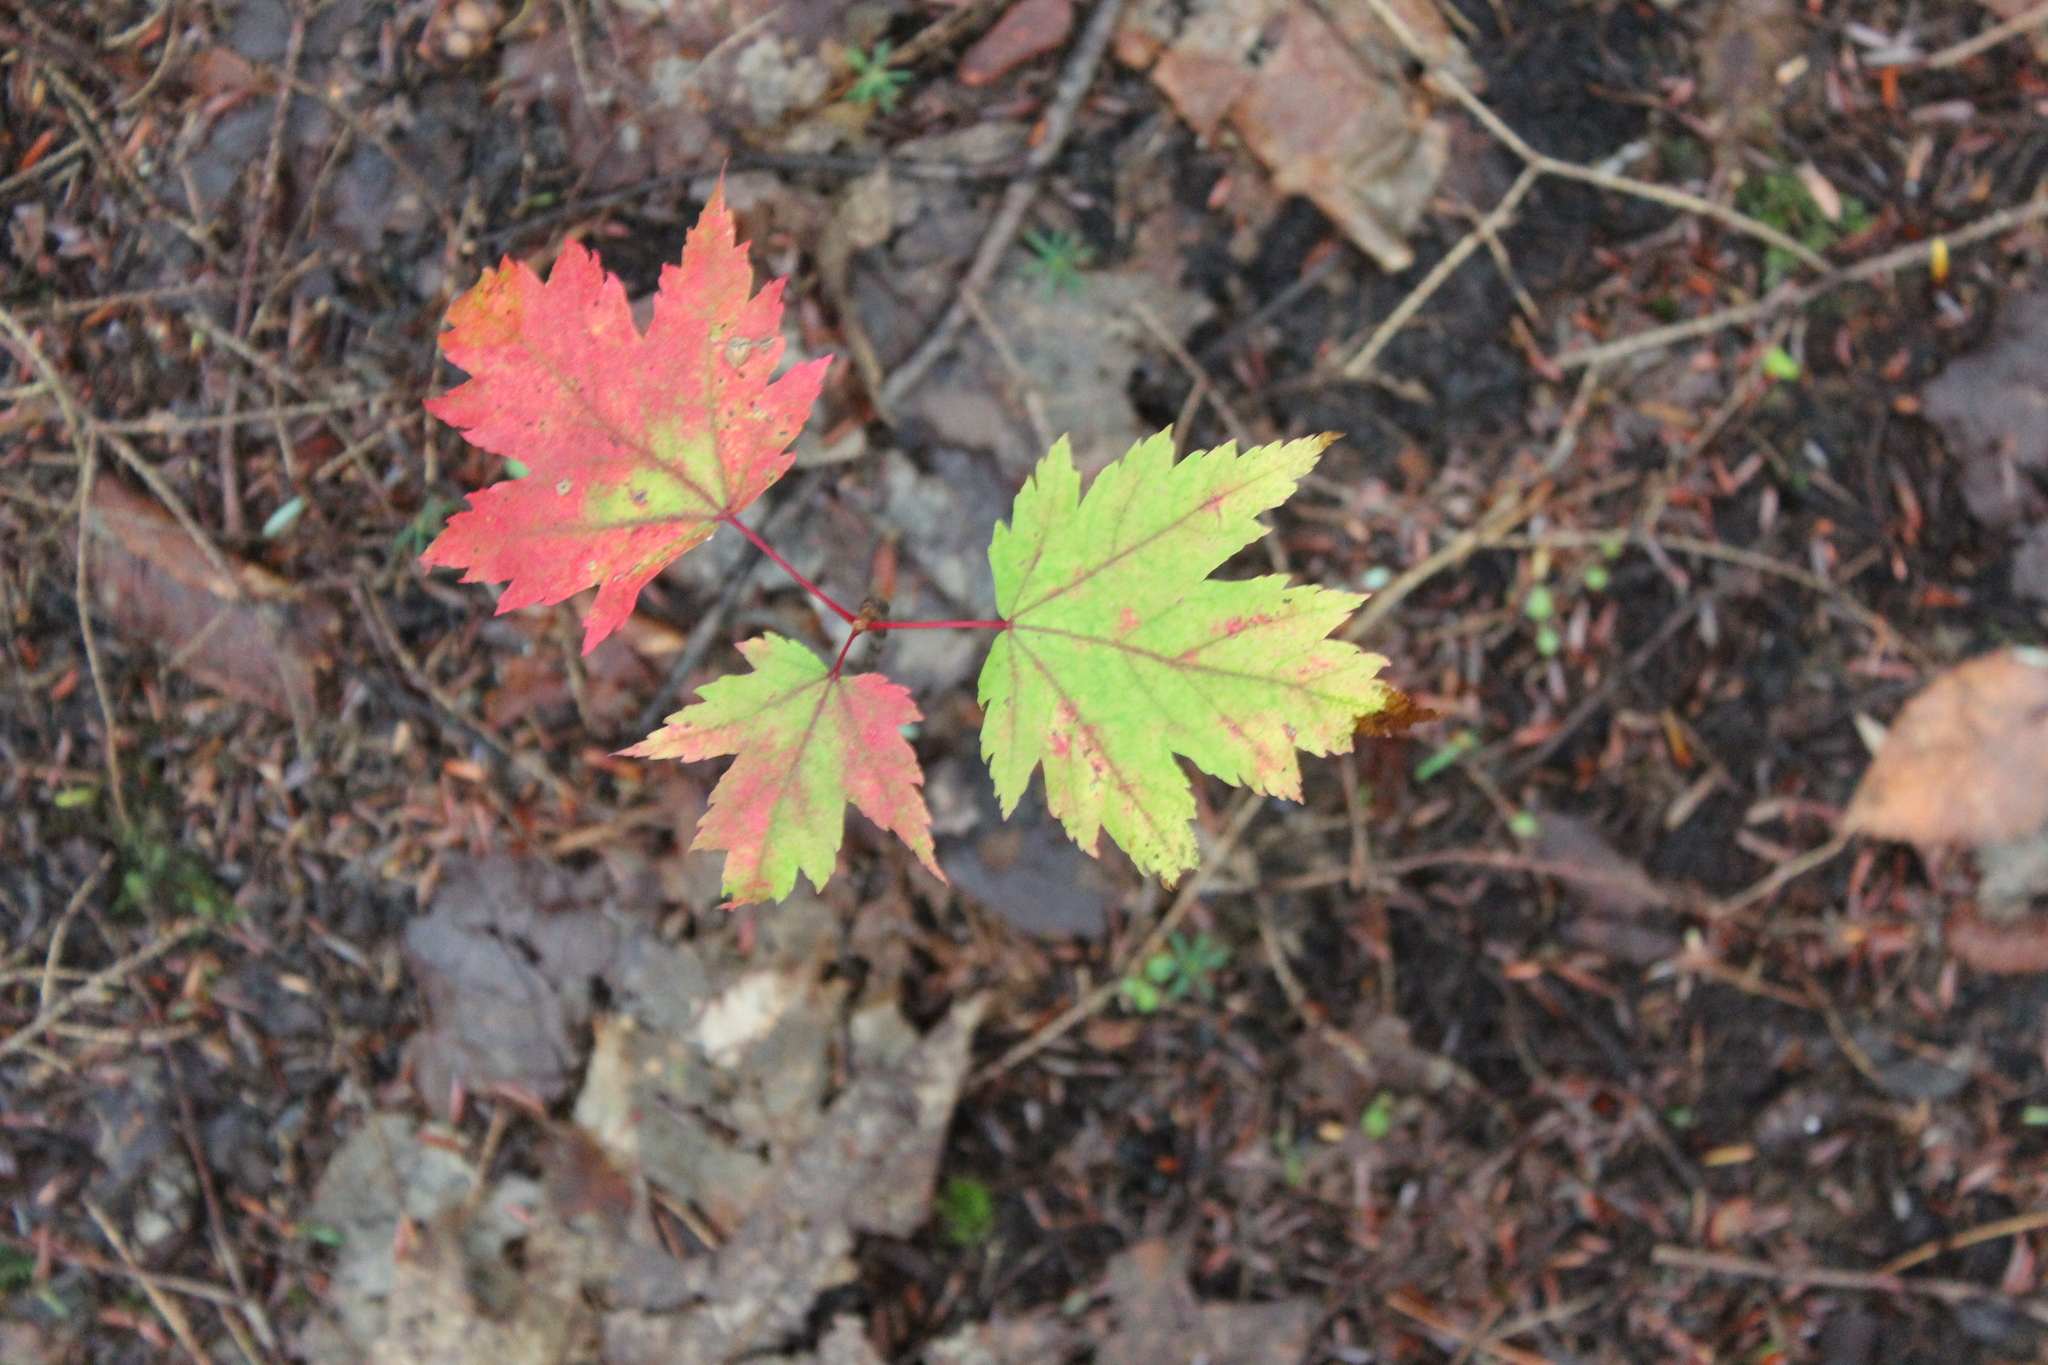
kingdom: Plantae
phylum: Tracheophyta
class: Magnoliopsida
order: Sapindales
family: Sapindaceae
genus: Acer
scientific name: Acer rubrum
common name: Red maple
